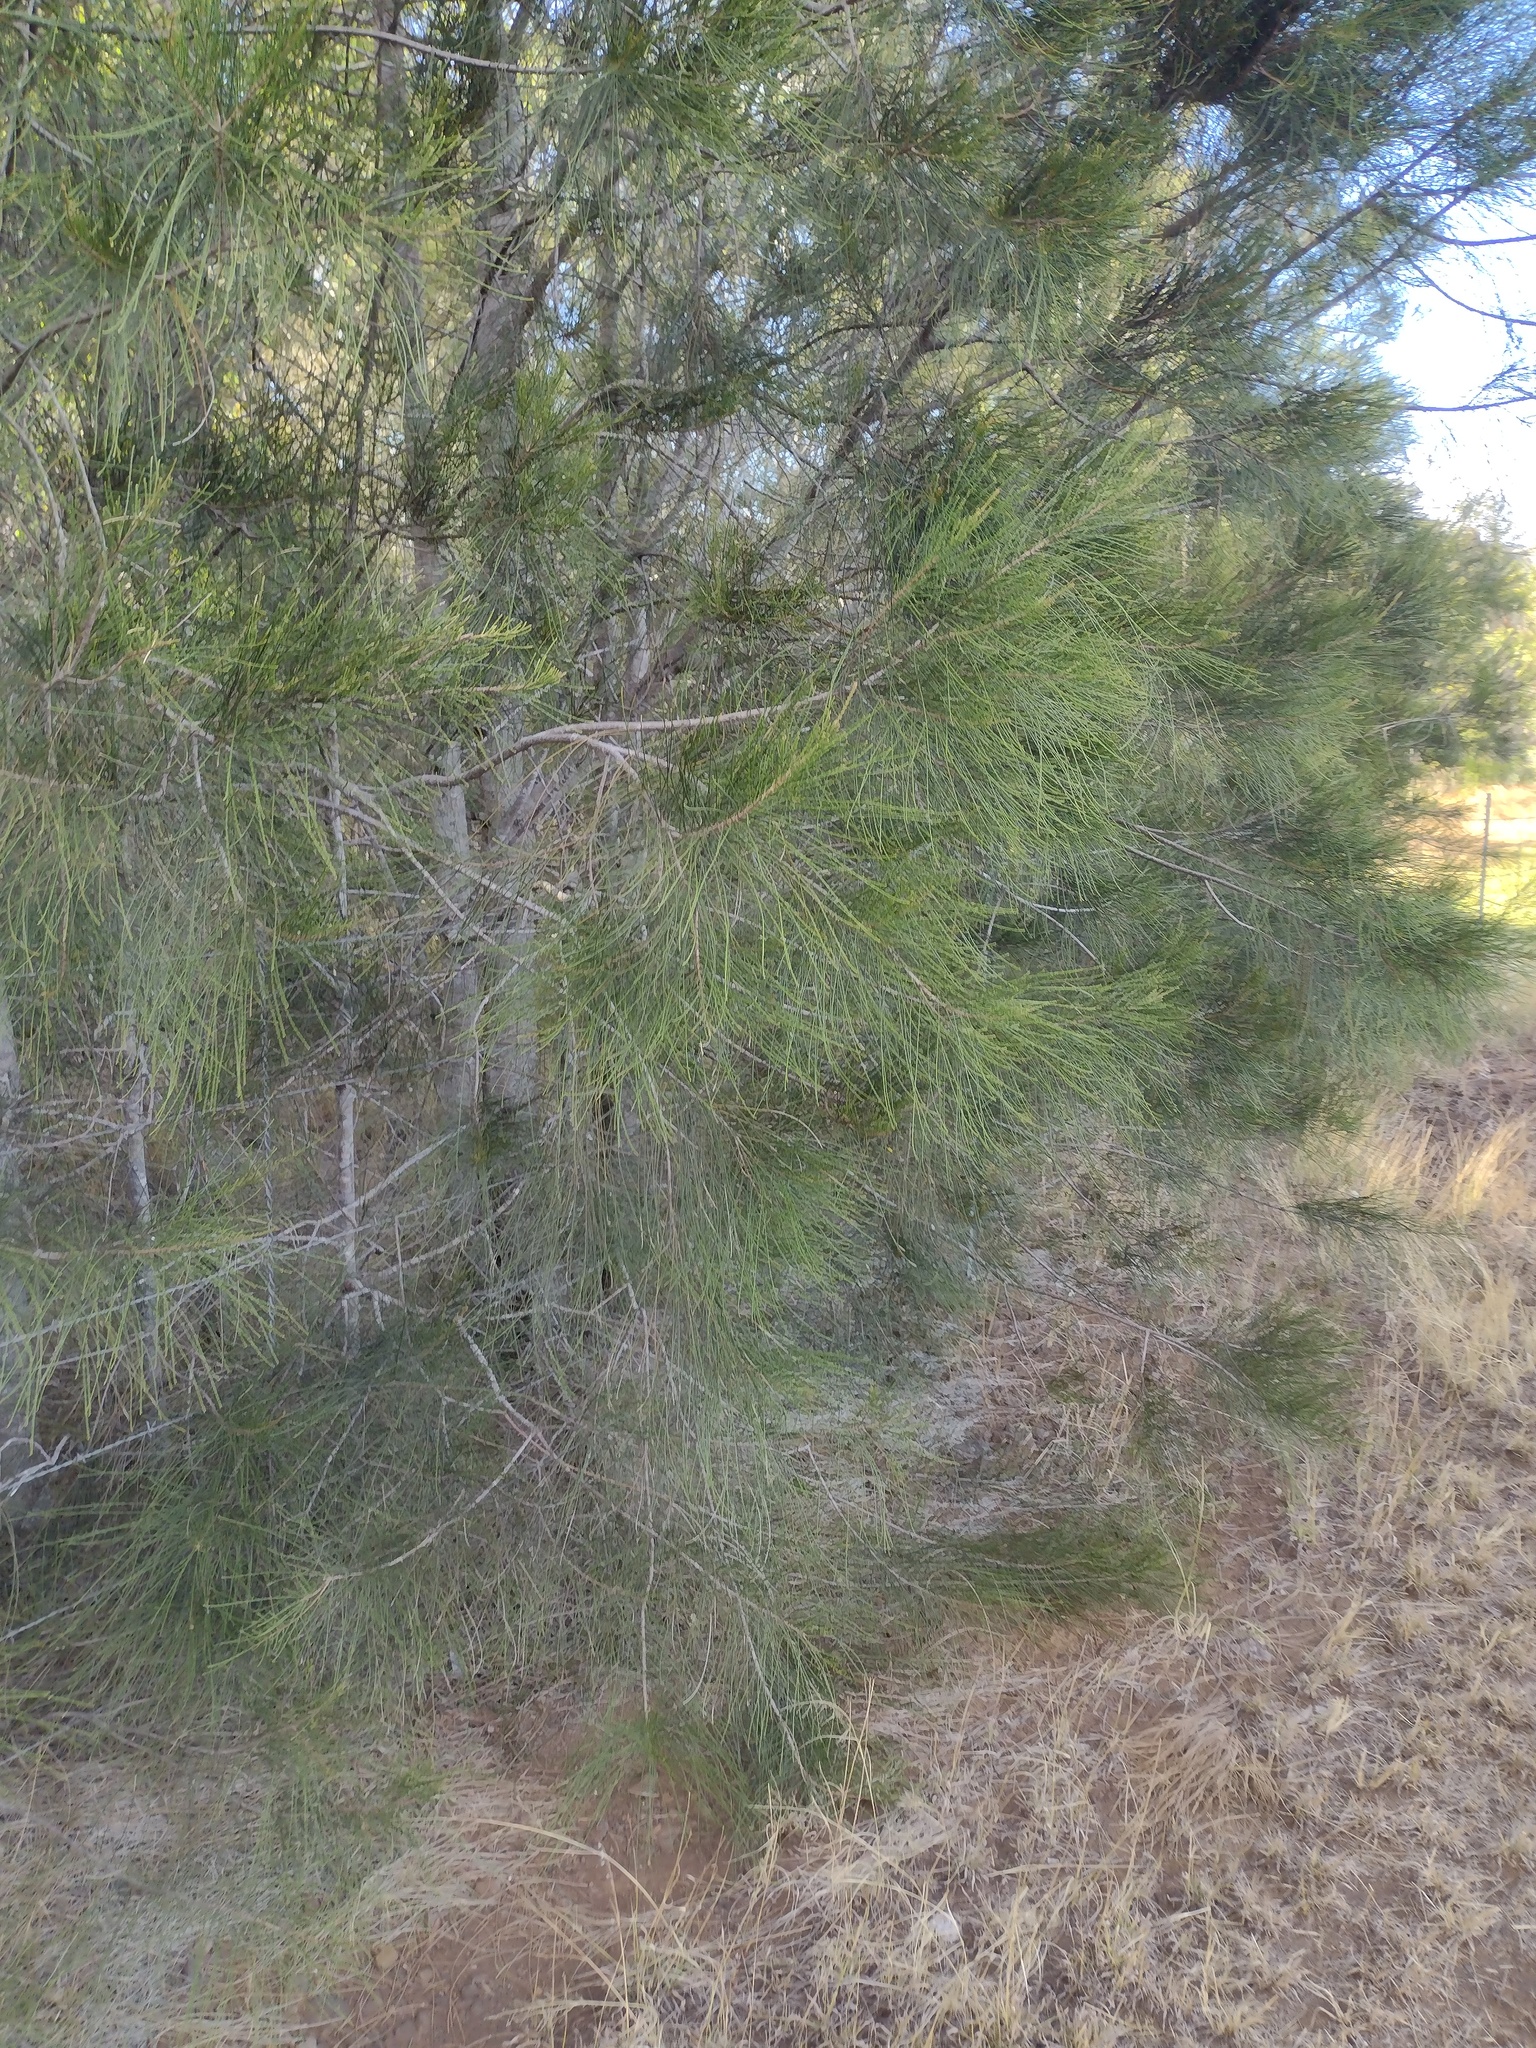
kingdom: Plantae
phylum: Tracheophyta
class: Magnoliopsida
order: Fagales
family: Casuarinaceae
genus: Casuarina
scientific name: Casuarina equisetifolia
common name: Beach sheoak
